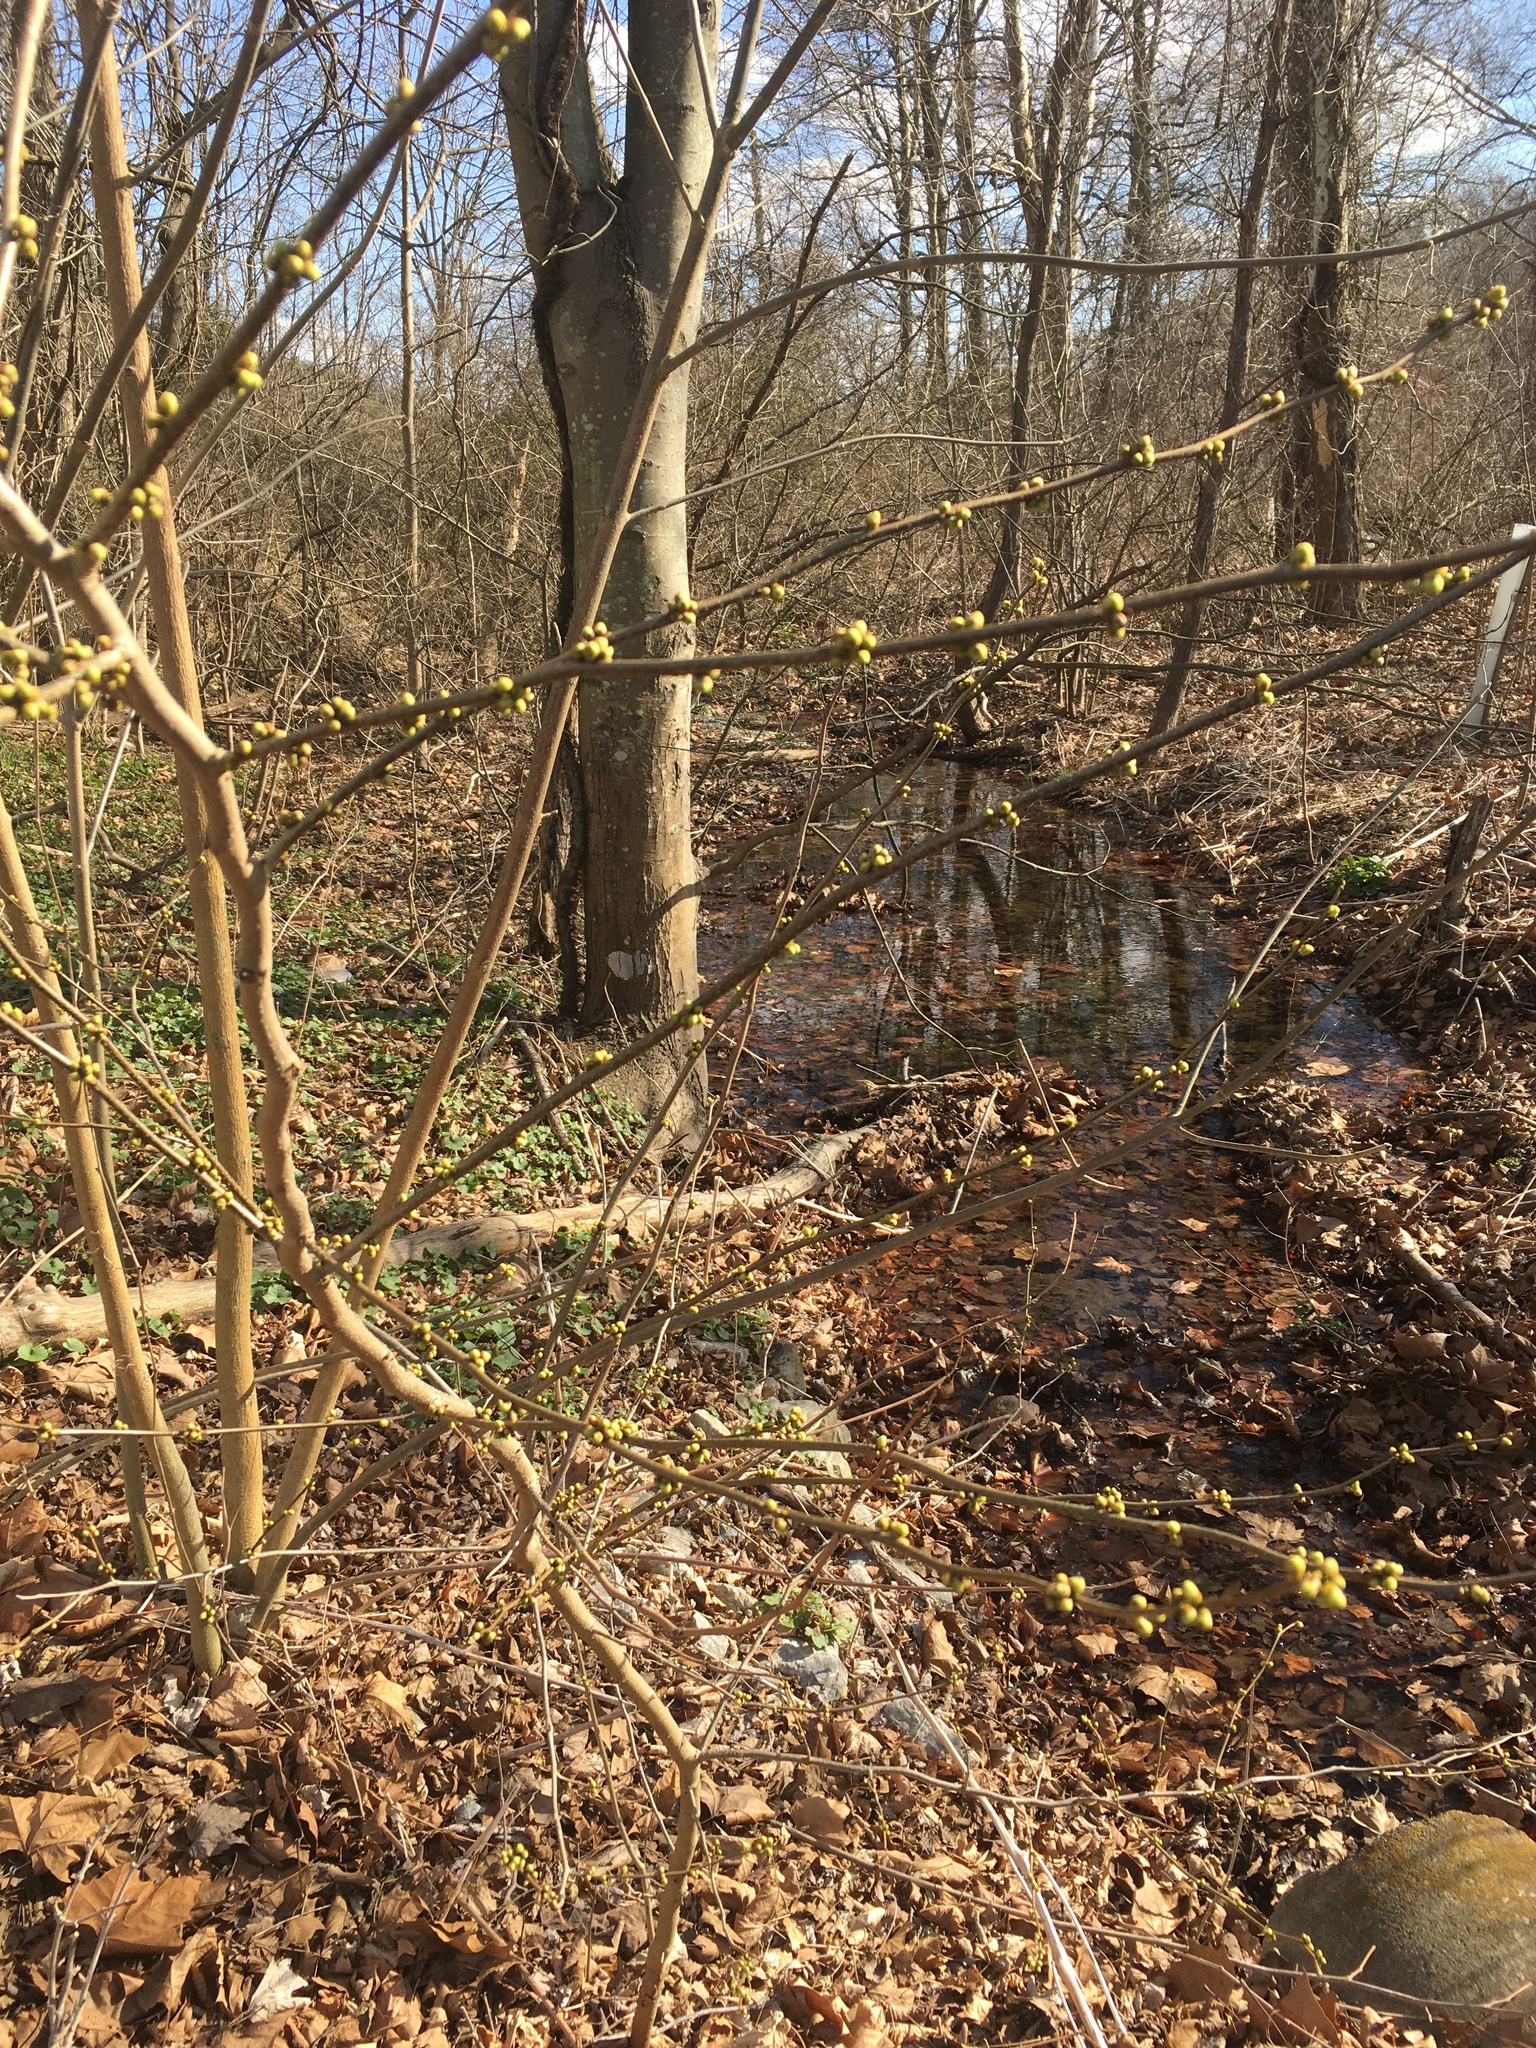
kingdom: Plantae
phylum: Tracheophyta
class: Magnoliopsida
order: Laurales
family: Lauraceae
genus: Lindera
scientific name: Lindera benzoin
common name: Spicebush
